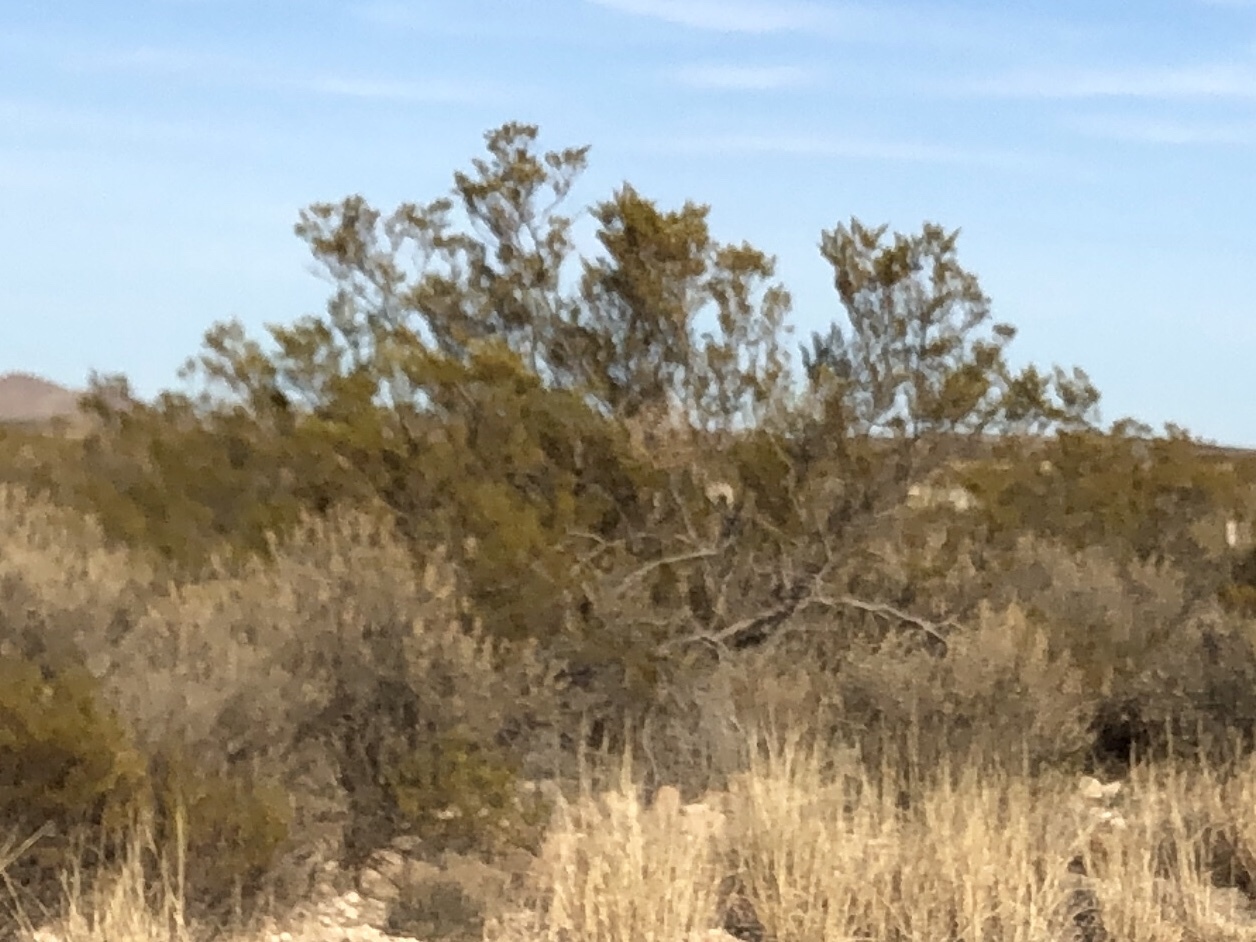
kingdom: Plantae
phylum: Tracheophyta
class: Magnoliopsida
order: Zygophyllales
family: Zygophyllaceae
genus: Larrea
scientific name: Larrea tridentata
